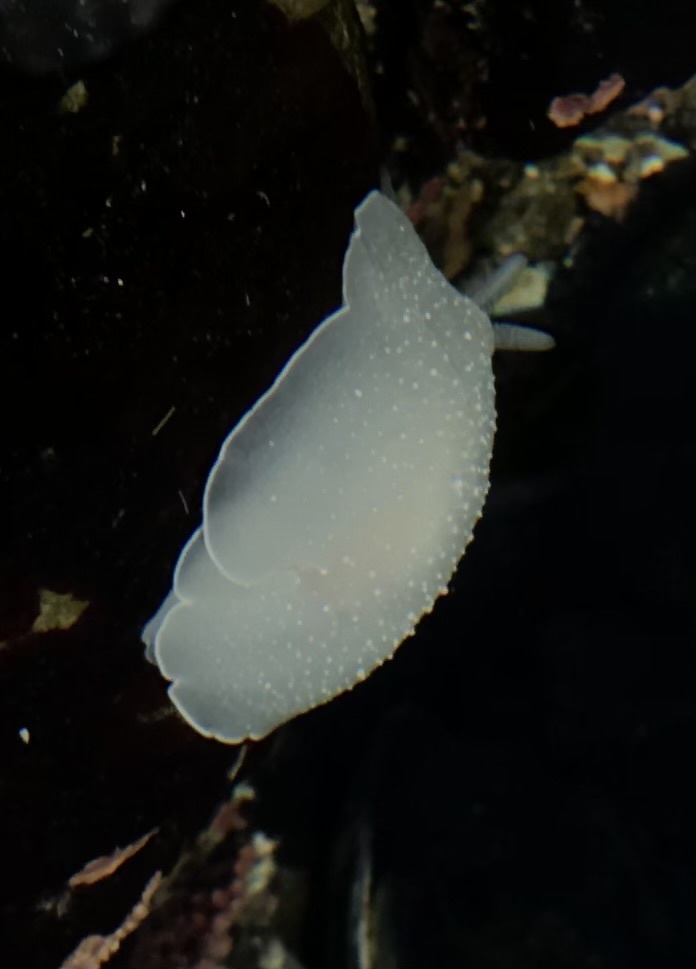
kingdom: Animalia
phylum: Mollusca
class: Gastropoda
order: Pleurobranchida
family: Pleurobranchidae
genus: Boreoberthella
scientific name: Boreoberthella
